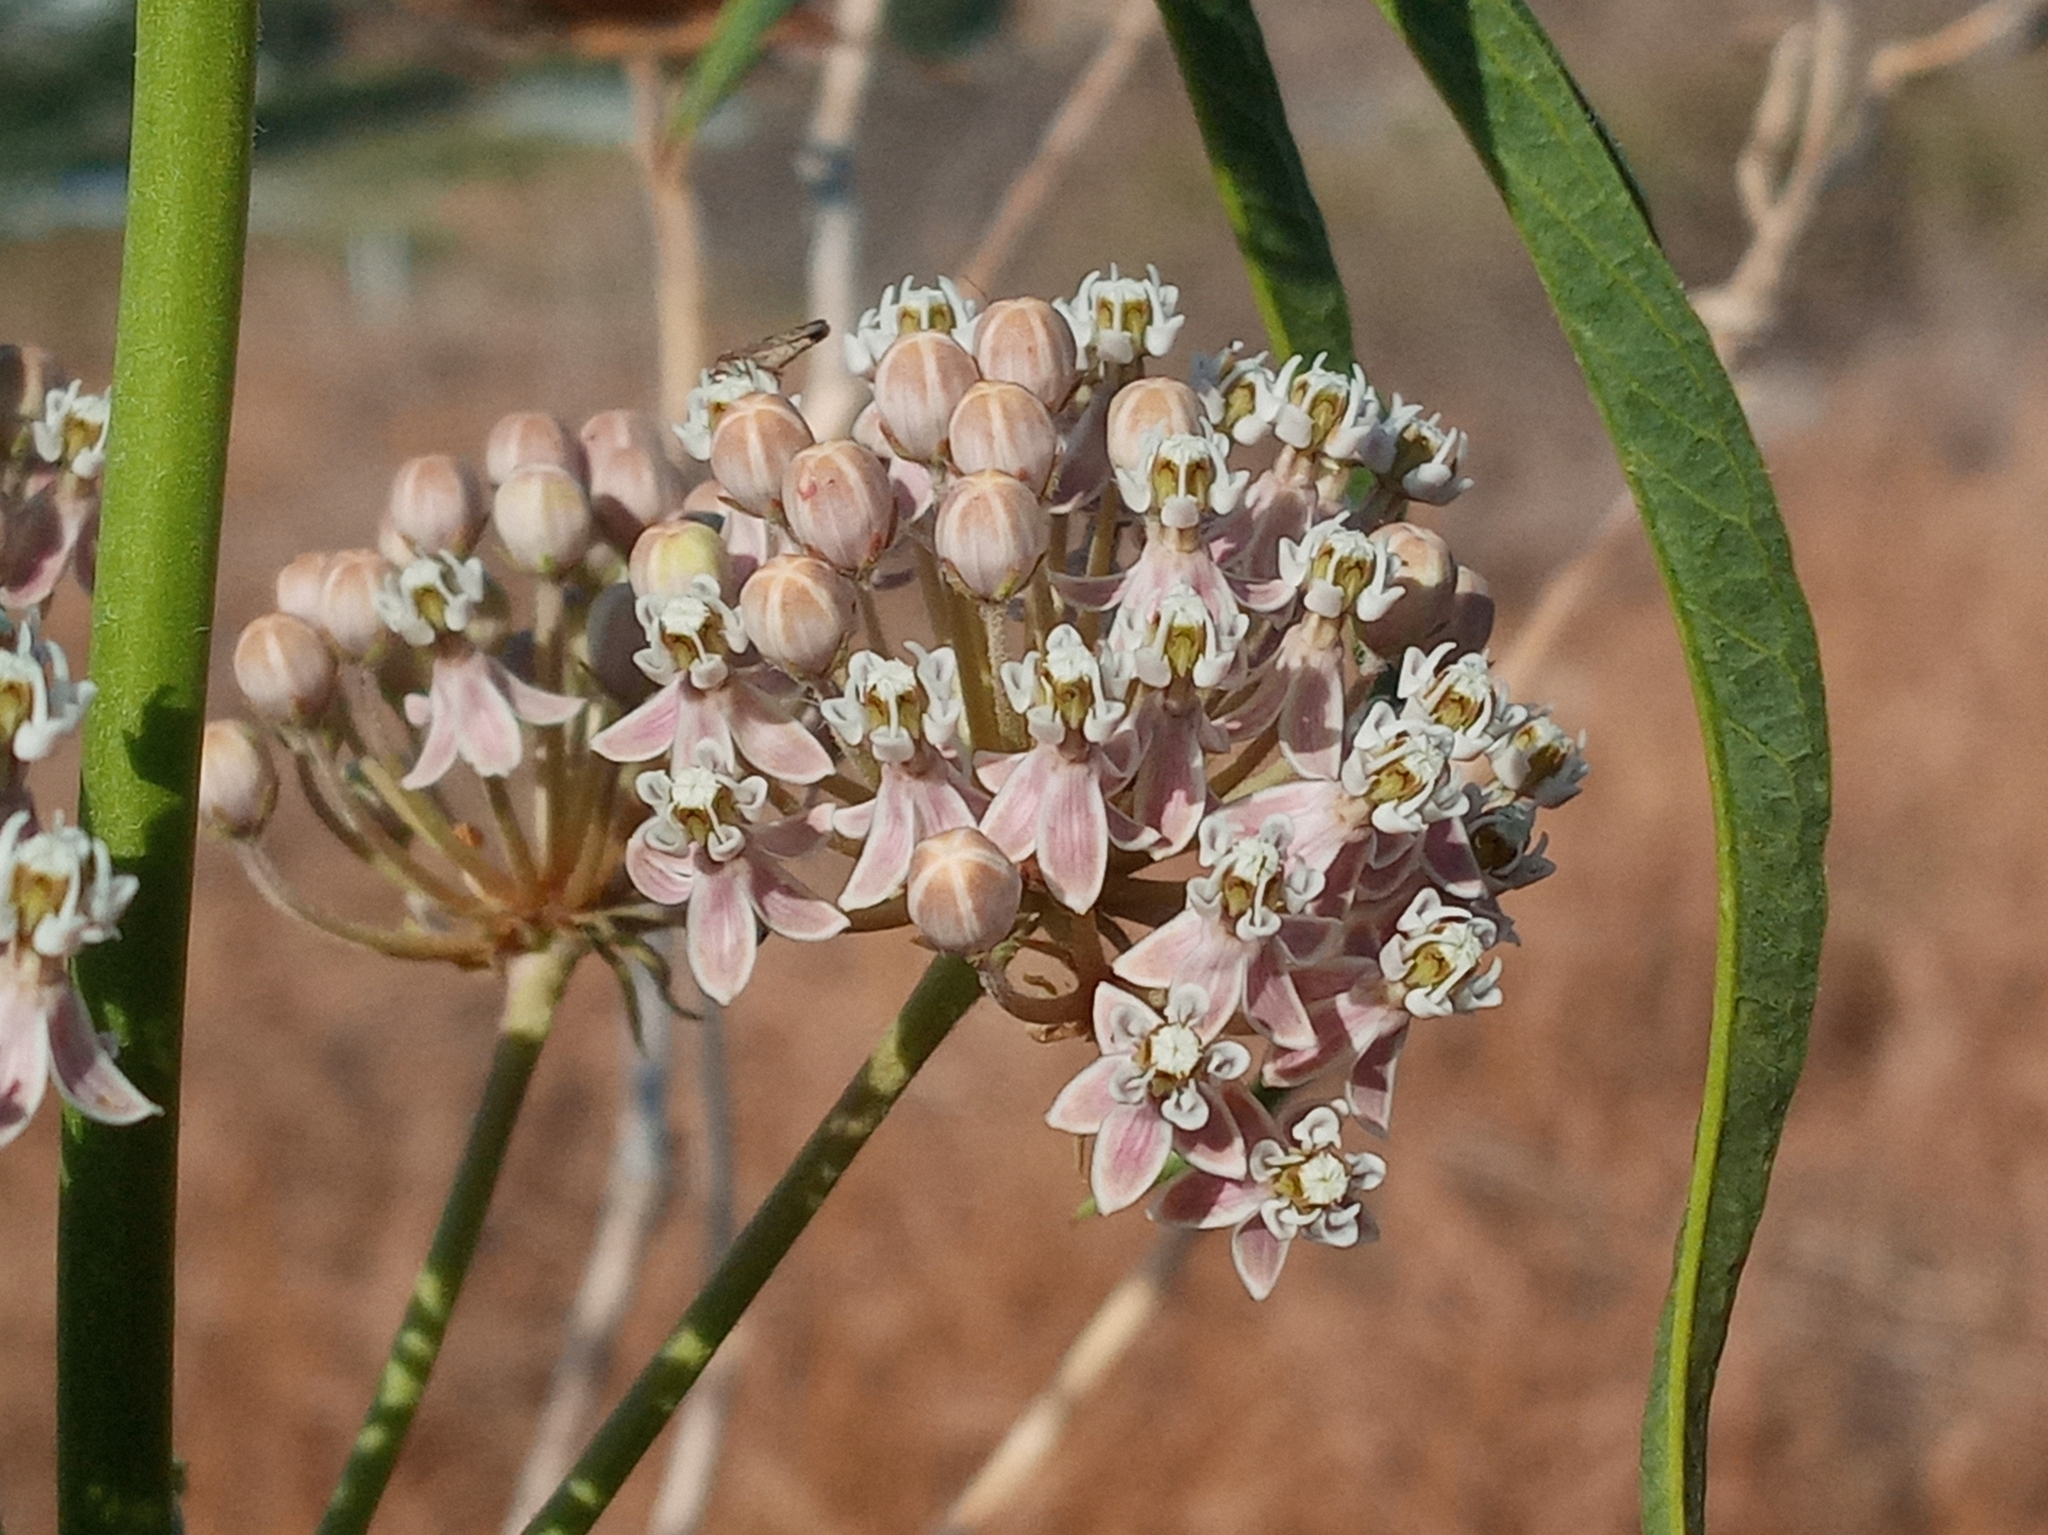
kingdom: Plantae
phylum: Tracheophyta
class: Magnoliopsida
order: Gentianales
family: Apocynaceae
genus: Asclepias
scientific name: Asclepias fascicularis
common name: Mexican milkweed
